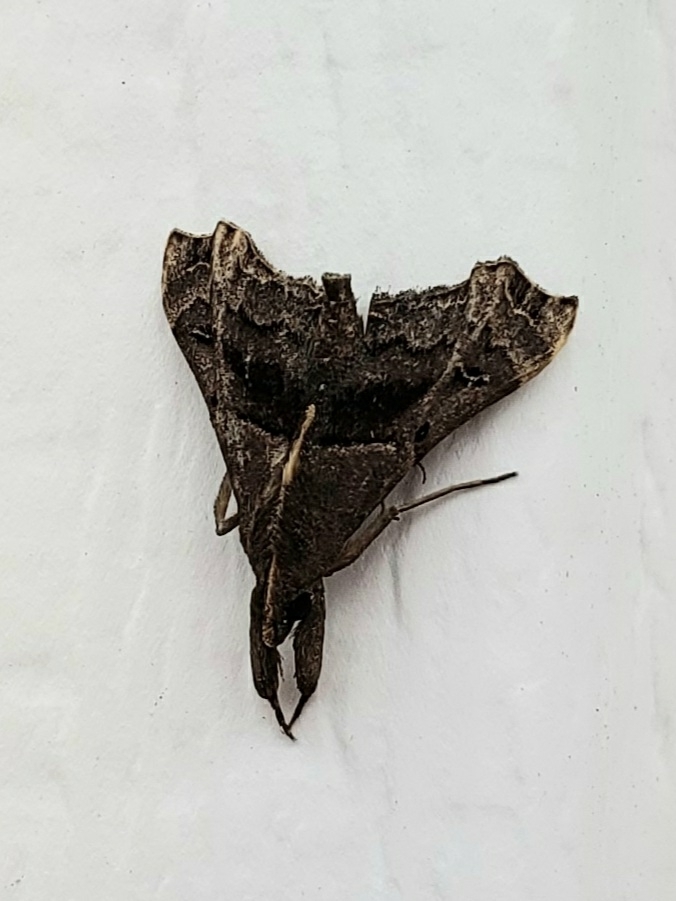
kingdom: Animalia
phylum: Arthropoda
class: Insecta
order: Lepidoptera
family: Erebidae
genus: Palthis
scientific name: Palthis asopialis
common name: Faint-spotted palthis moth
